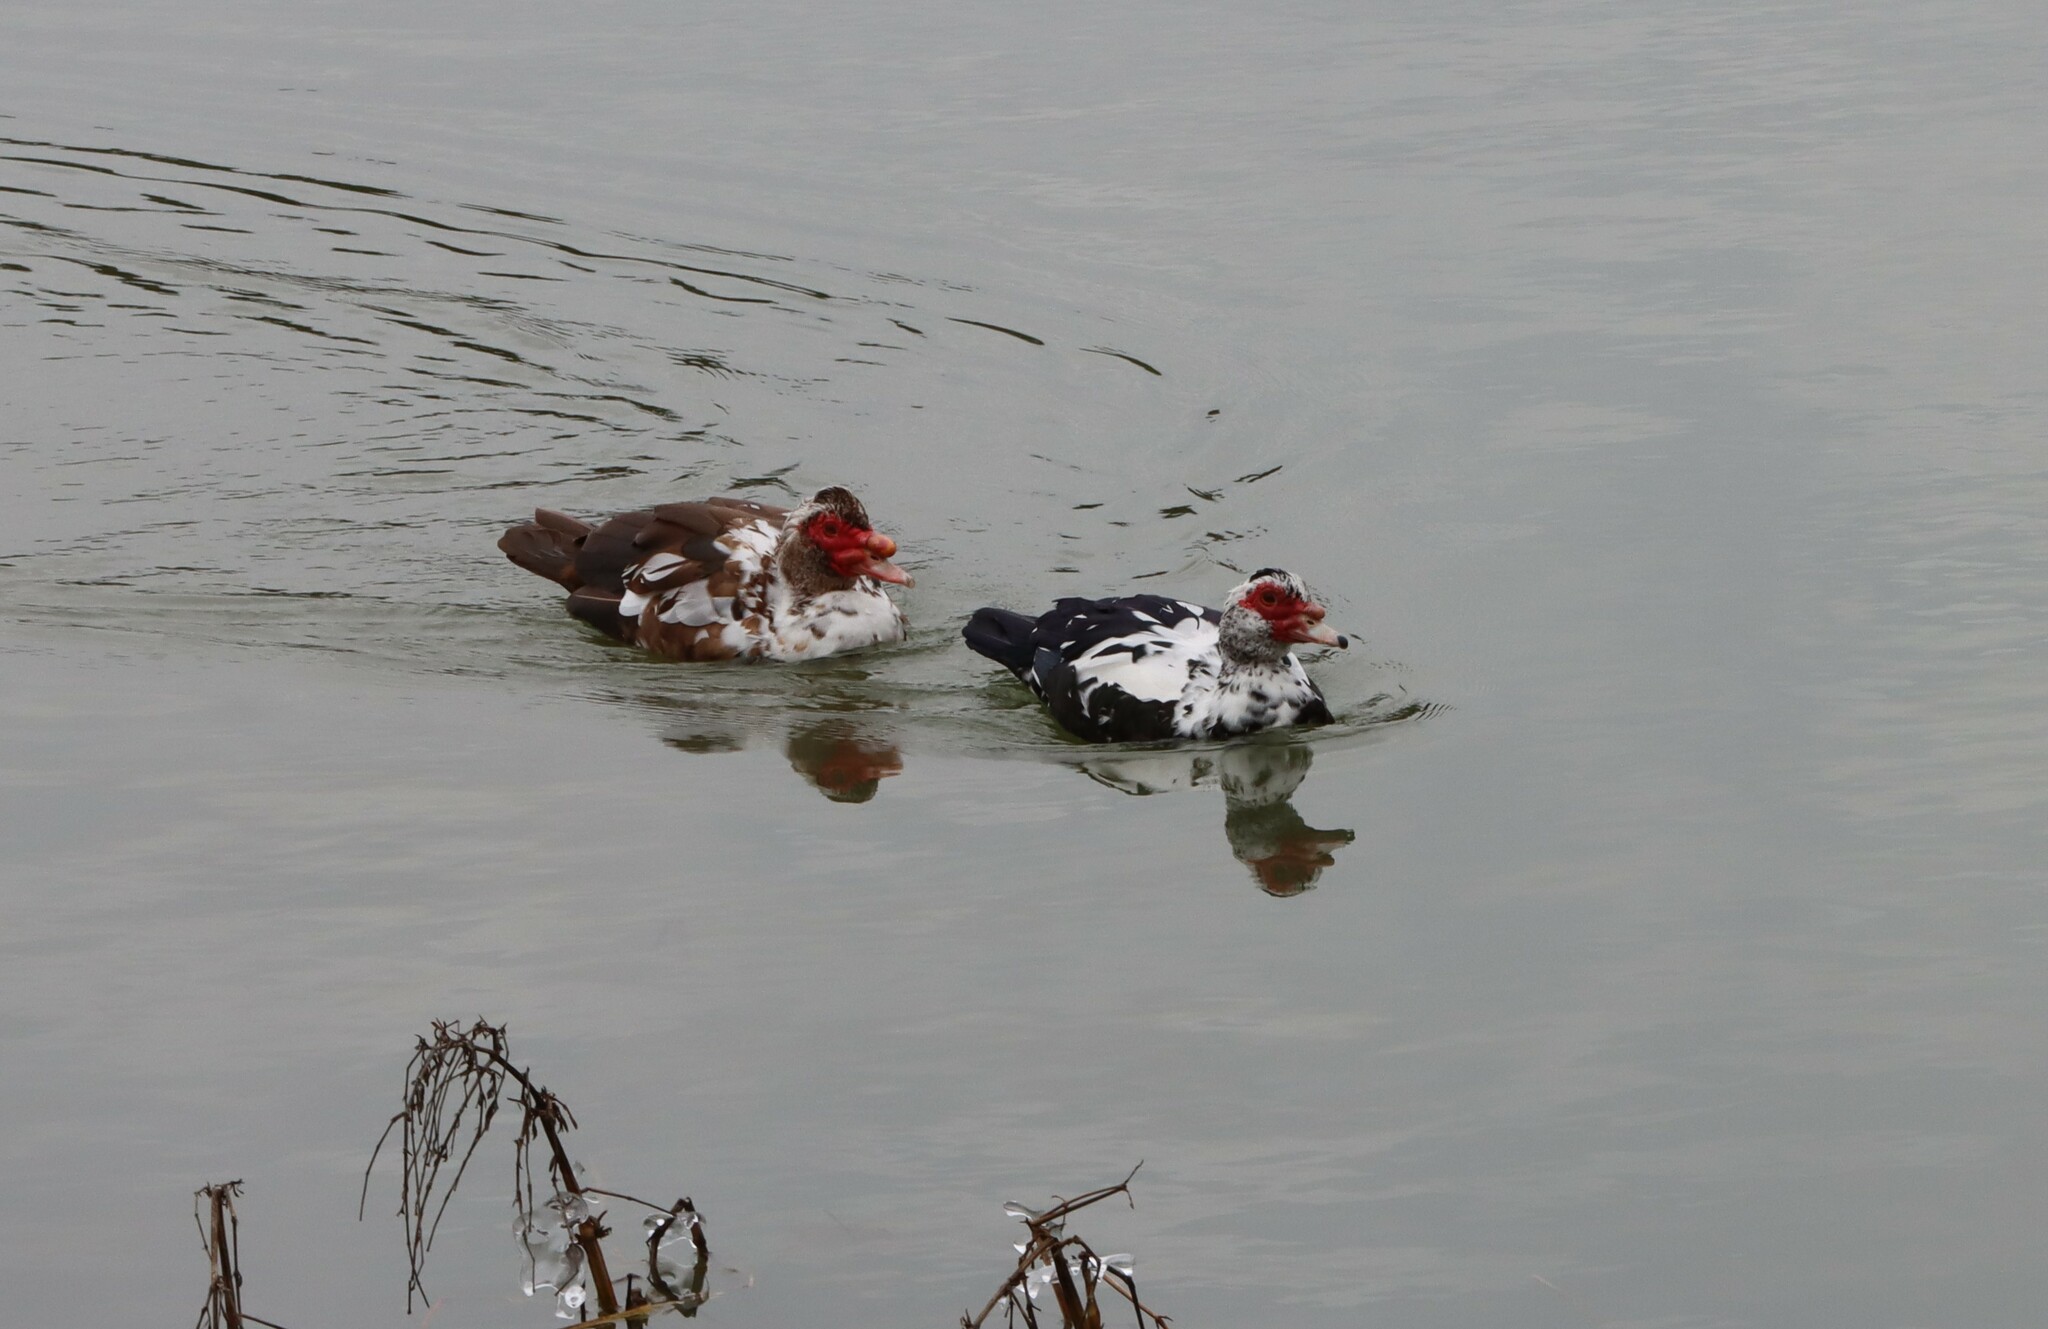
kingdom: Animalia
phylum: Chordata
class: Aves
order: Anseriformes
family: Anatidae
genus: Cairina
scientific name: Cairina moschata
